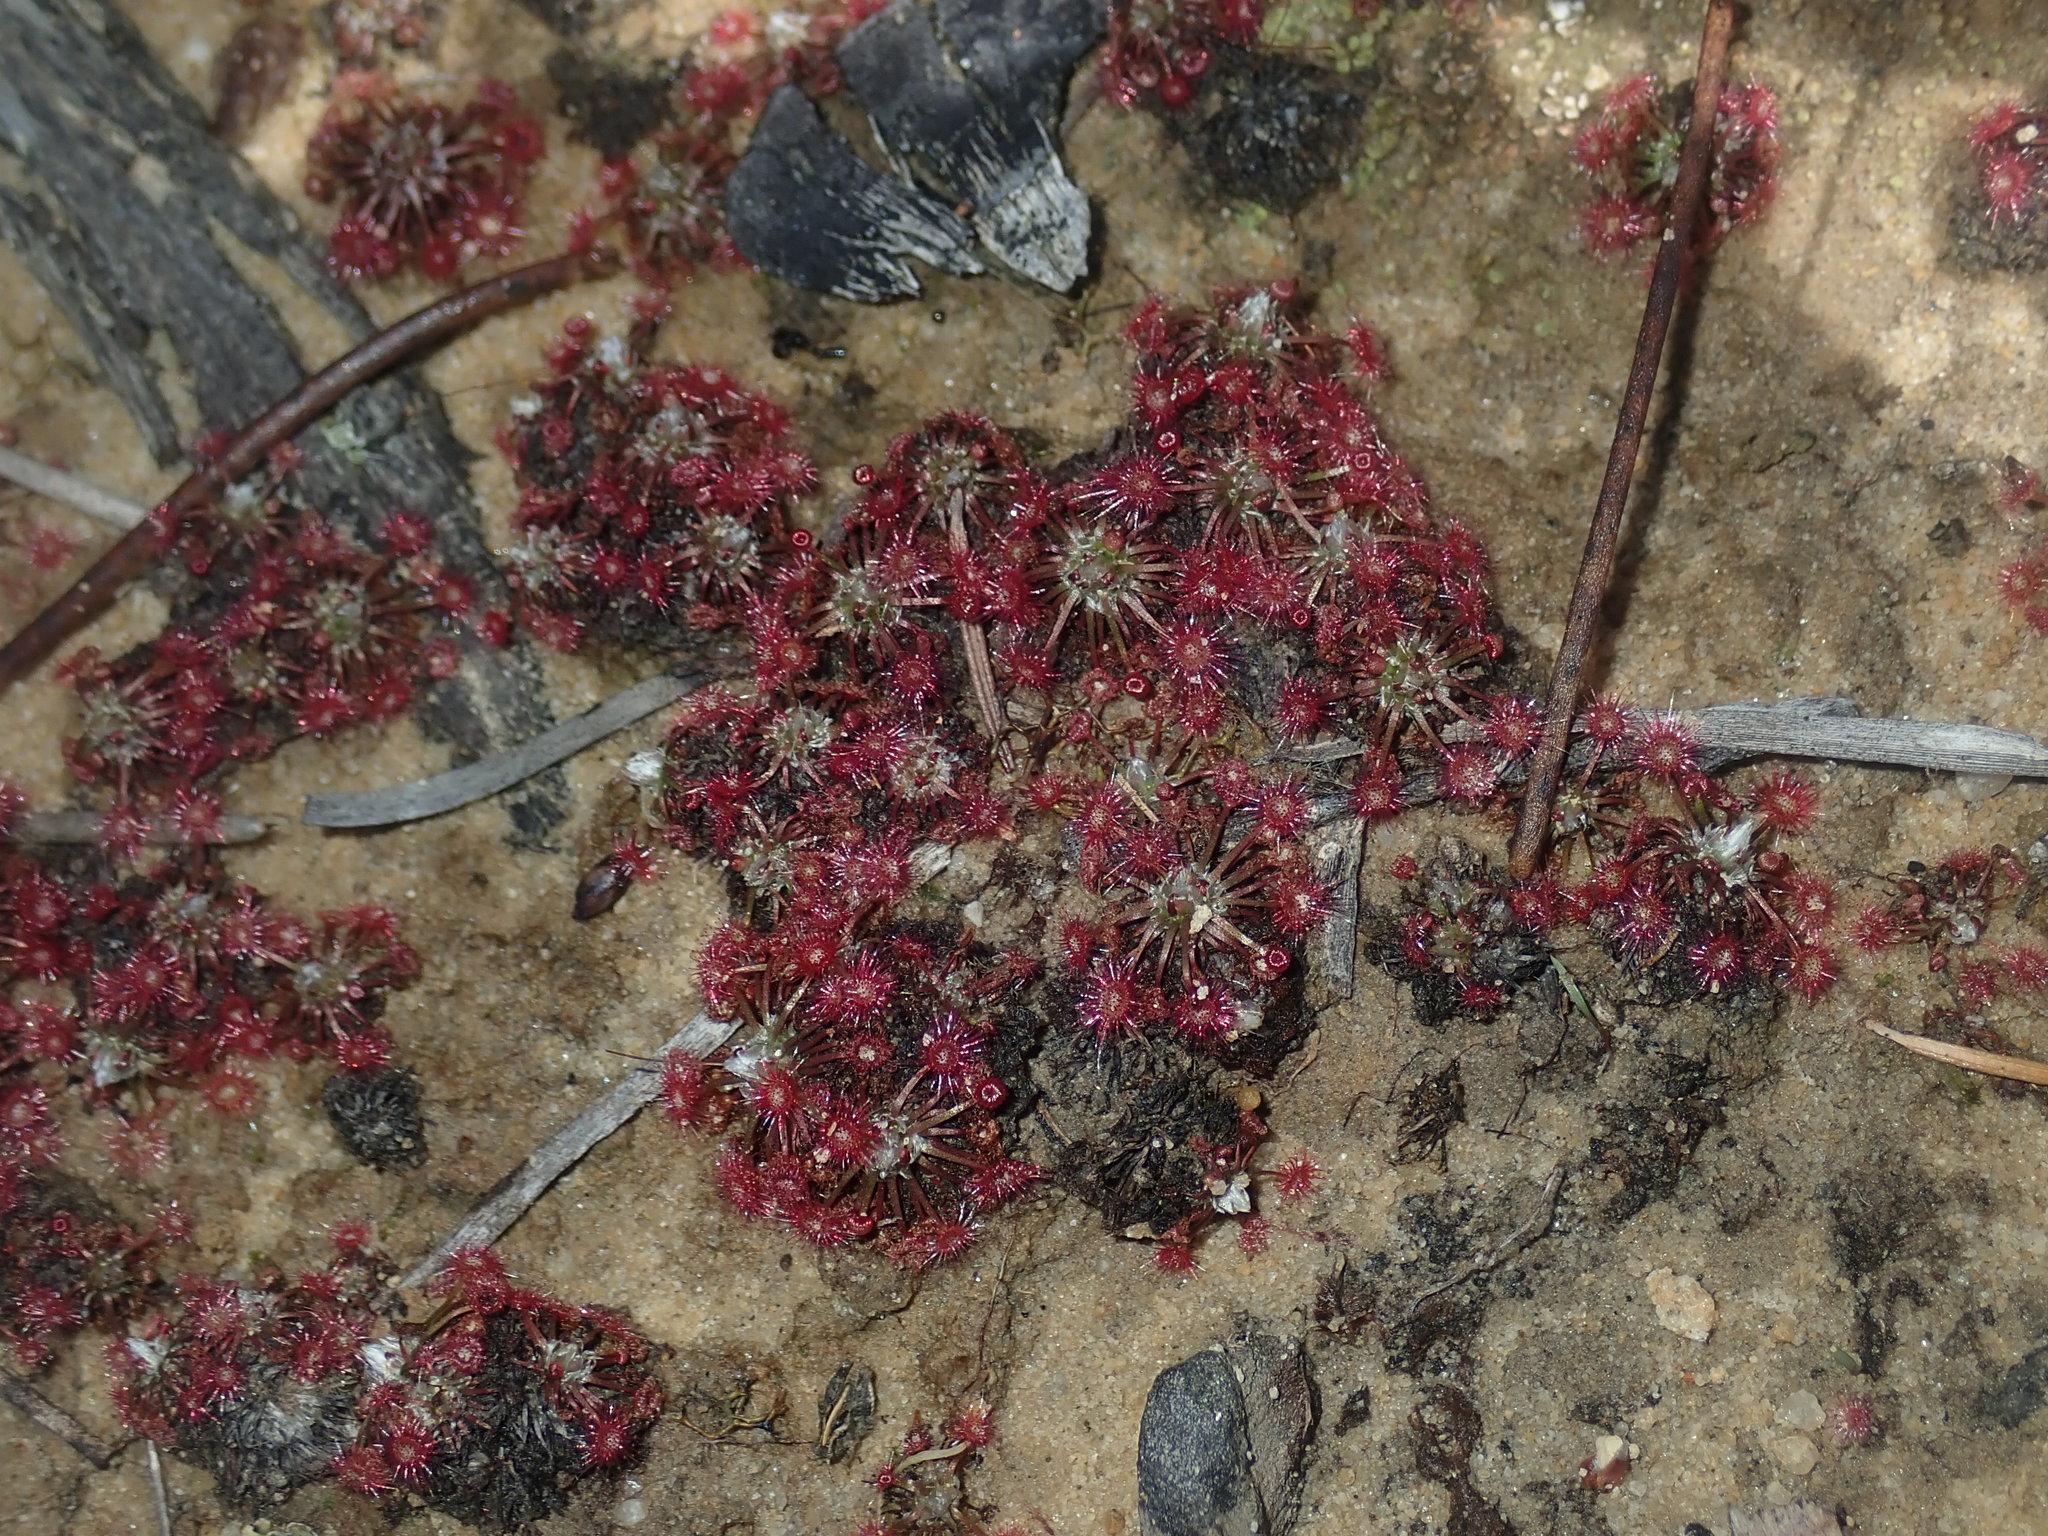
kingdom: Plantae
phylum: Tracheophyta
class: Magnoliopsida
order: Caryophyllales
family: Droseraceae
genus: Drosera
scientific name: Drosera pygmaea
